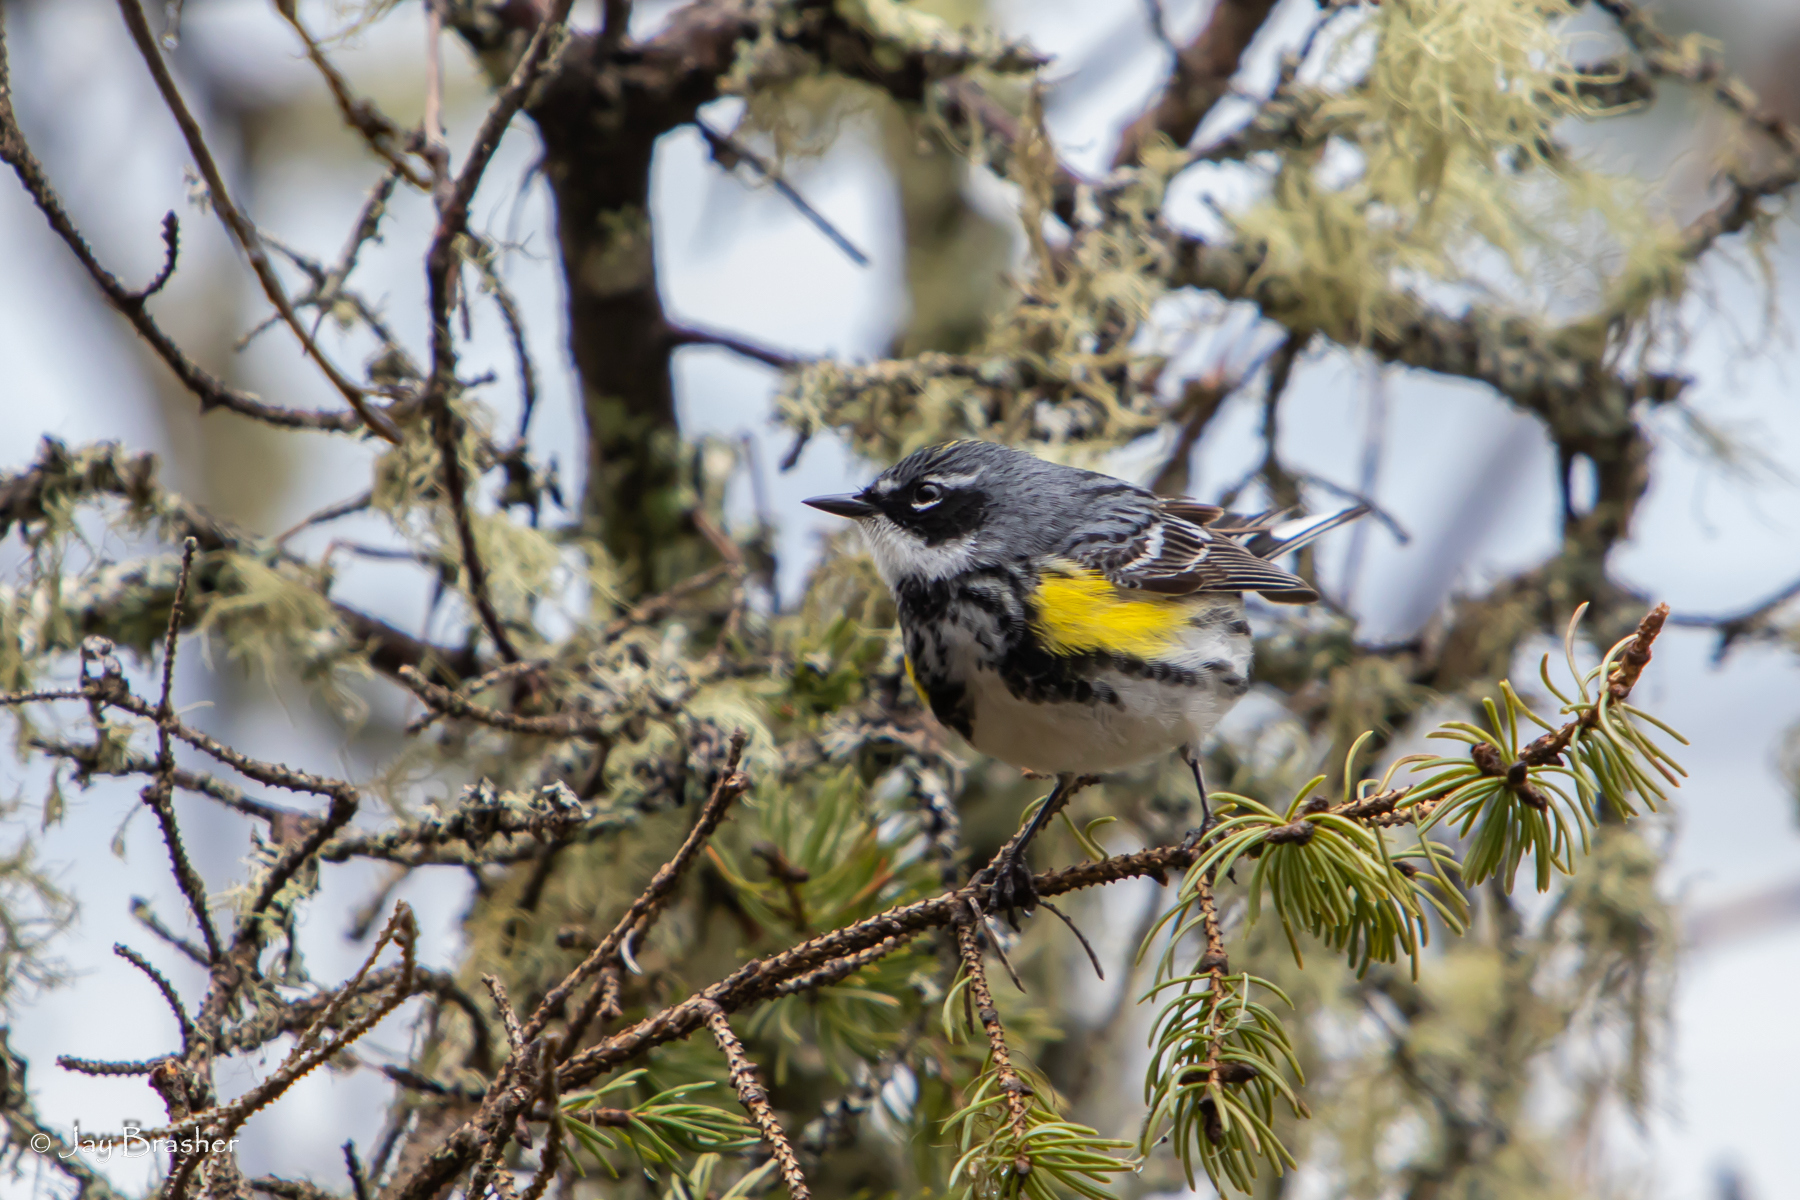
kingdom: Animalia
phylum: Chordata
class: Aves
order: Passeriformes
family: Parulidae
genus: Setophaga
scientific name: Setophaga coronata
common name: Myrtle warbler
